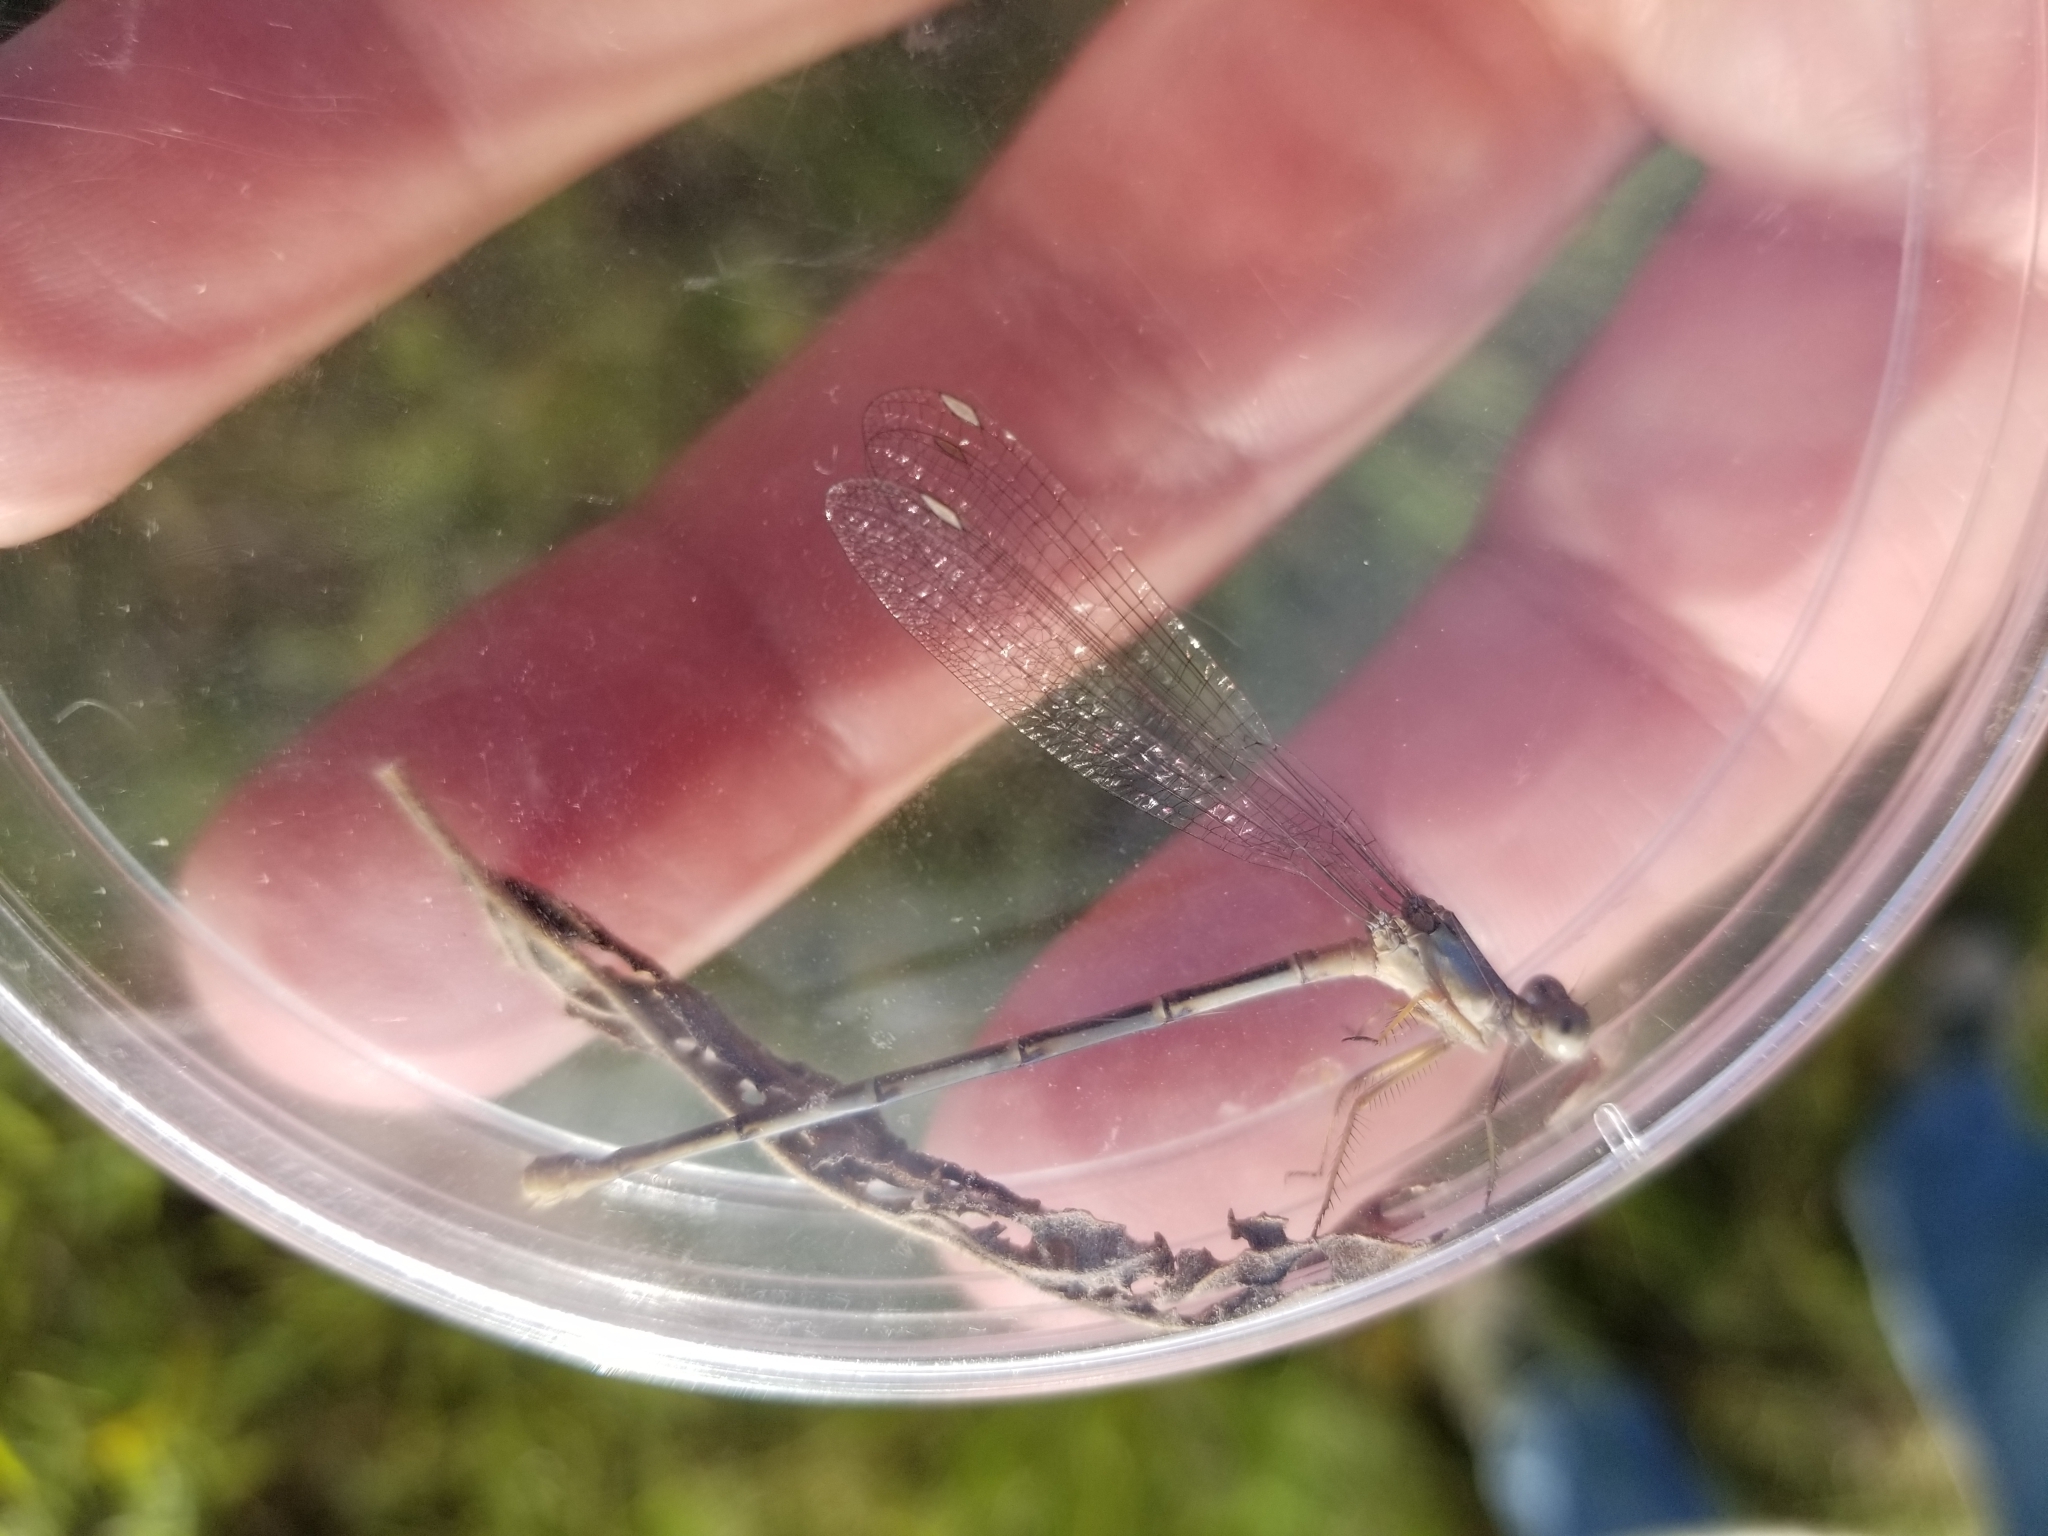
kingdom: Animalia
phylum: Arthropoda
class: Insecta
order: Odonata
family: Coenagrionidae
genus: Argia
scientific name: Argia moesta
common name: Powdered dancer
